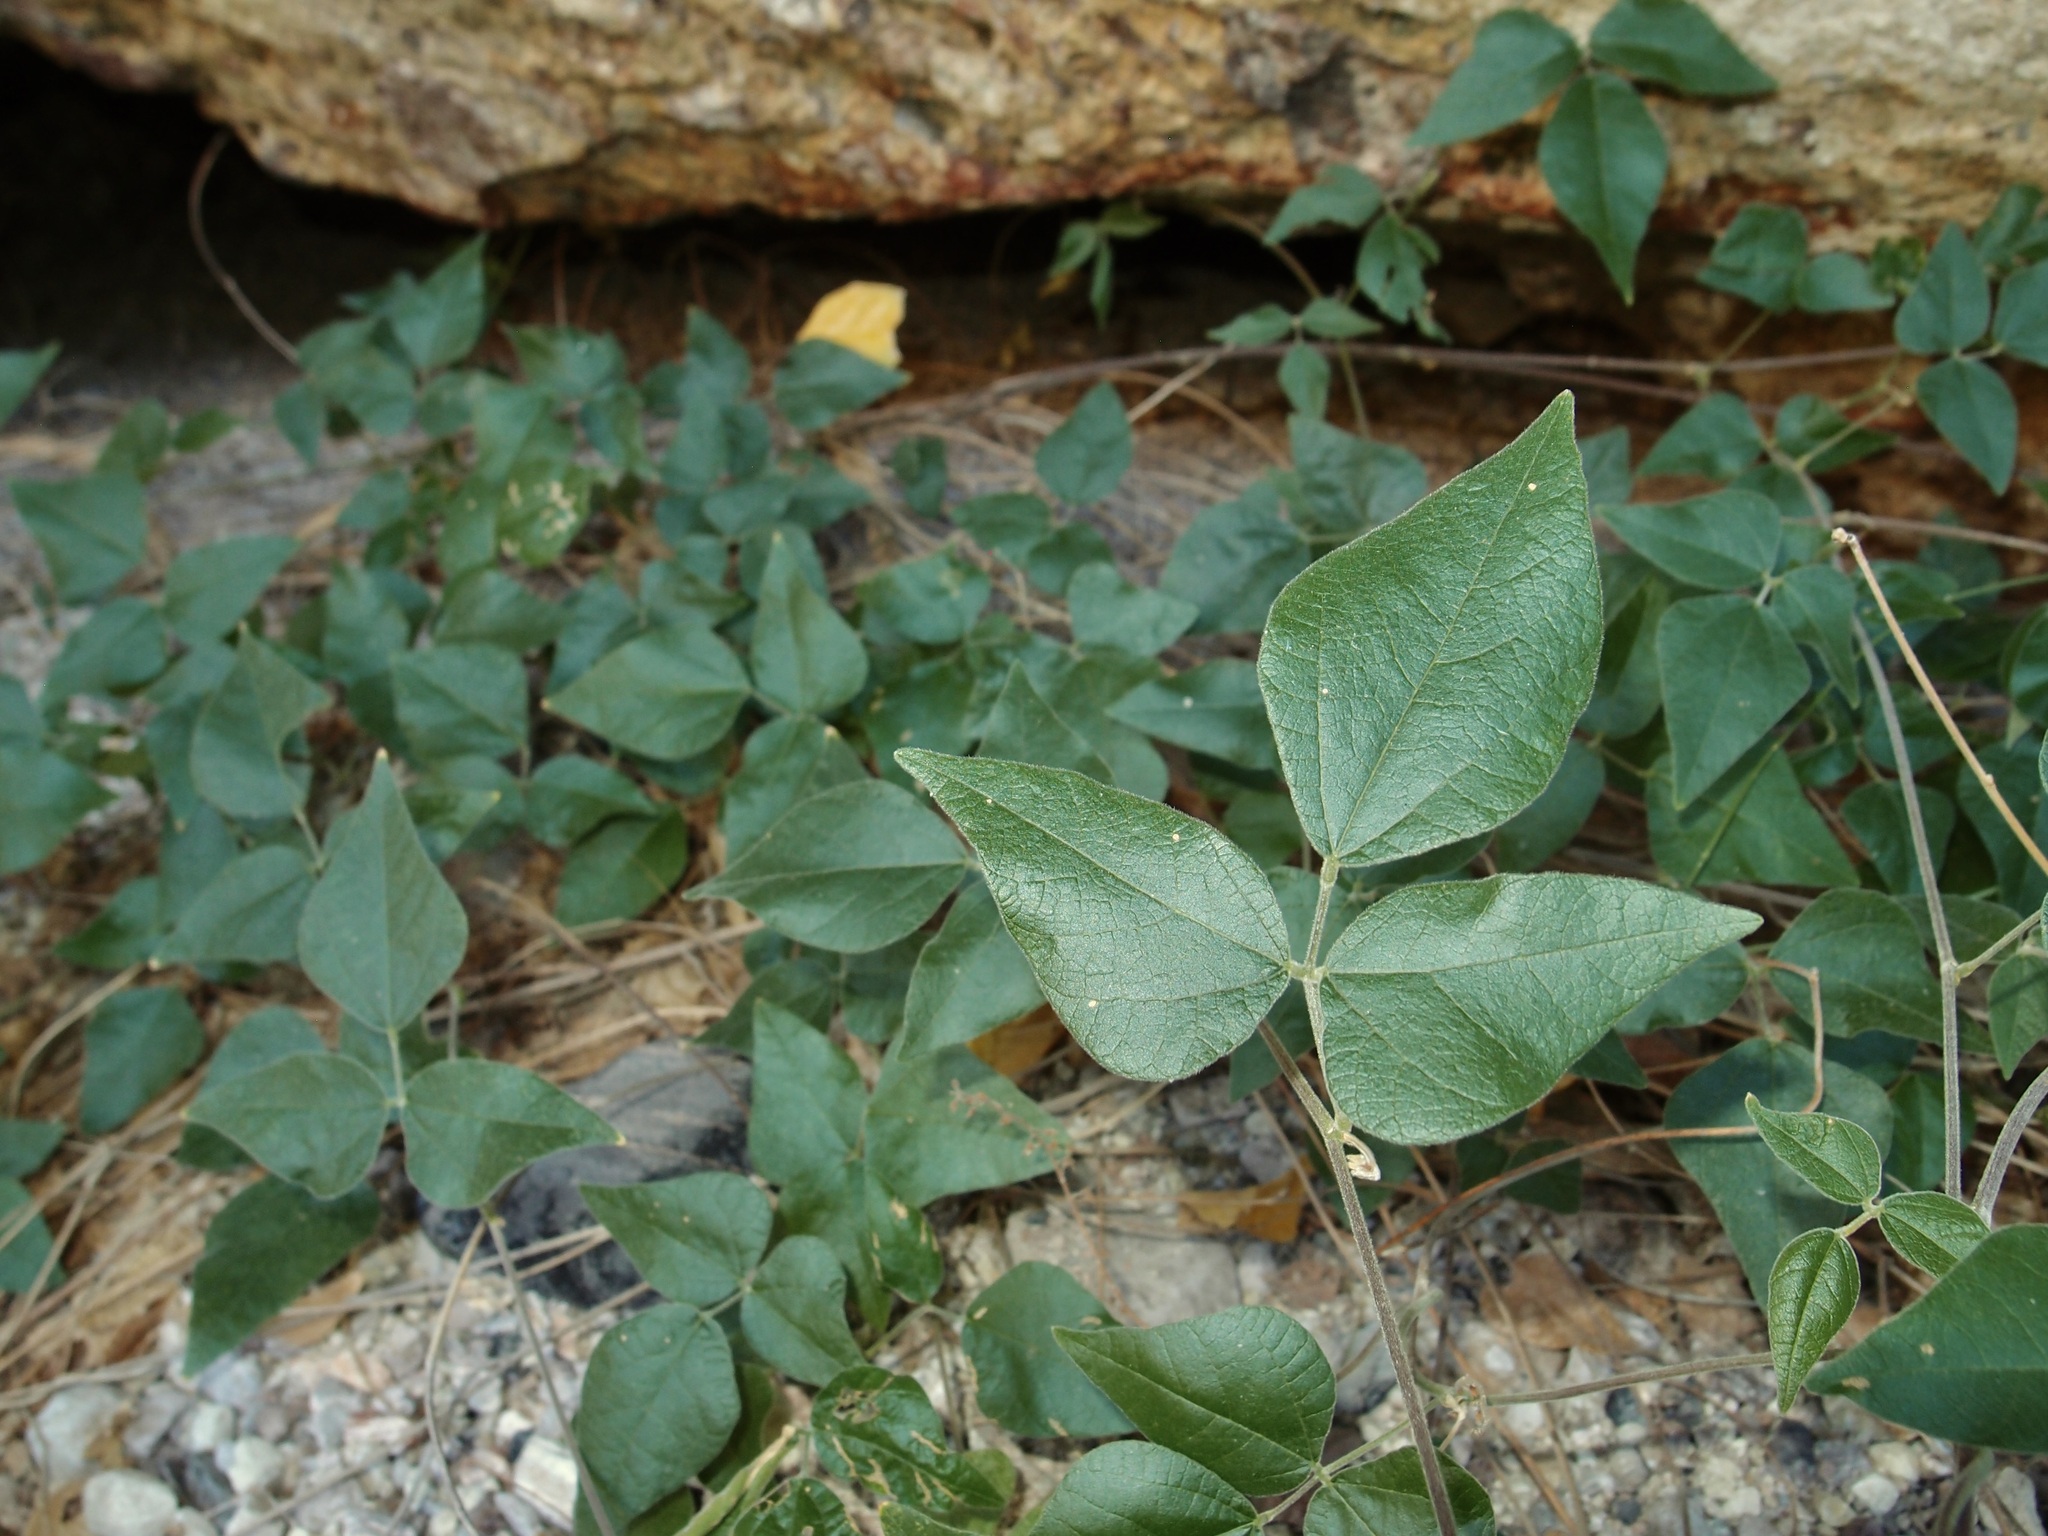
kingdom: Plantae
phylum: Tracheophyta
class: Magnoliopsida
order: Fabales
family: Fabaceae
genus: Rhynchosia
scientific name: Rhynchosia precatoria
